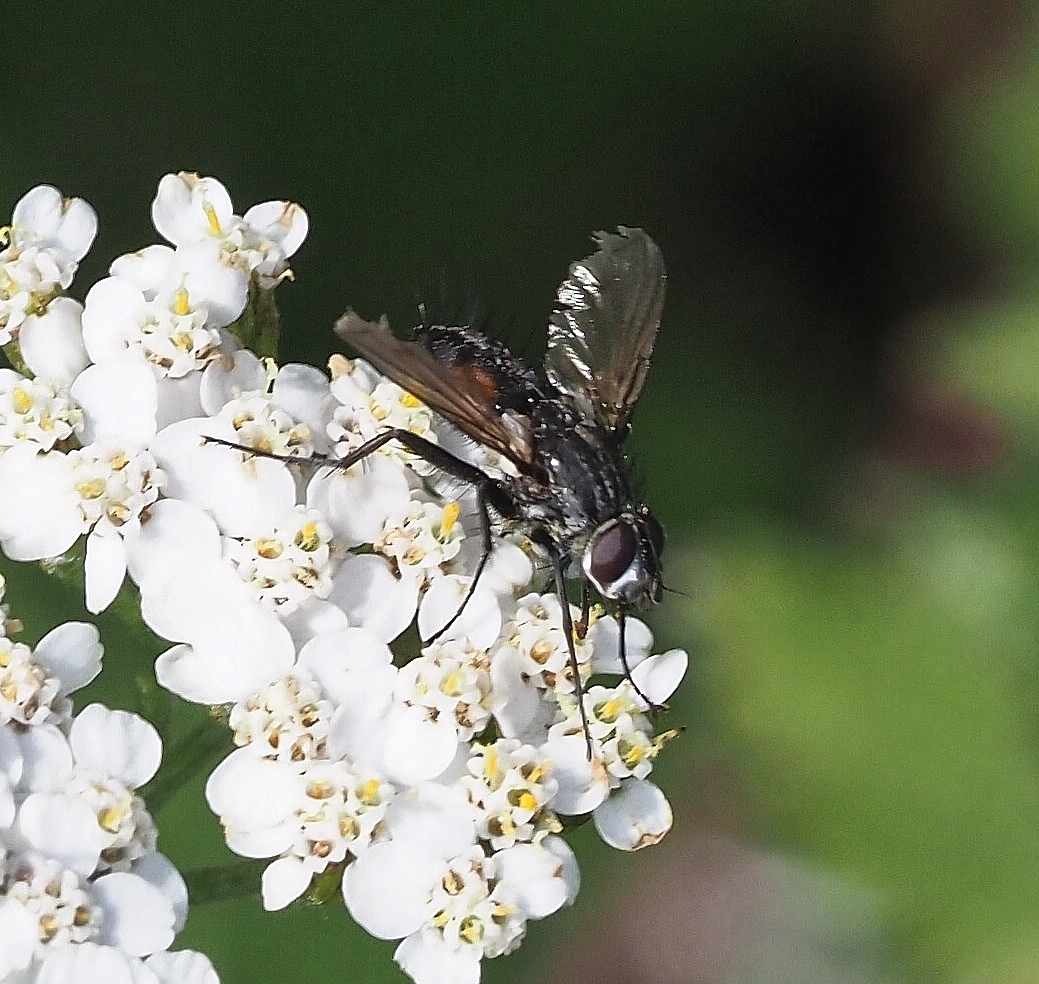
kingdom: Animalia
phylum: Arthropoda
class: Insecta
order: Diptera
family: Tachinidae
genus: Eriothrix
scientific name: Eriothrix rufomaculatus
